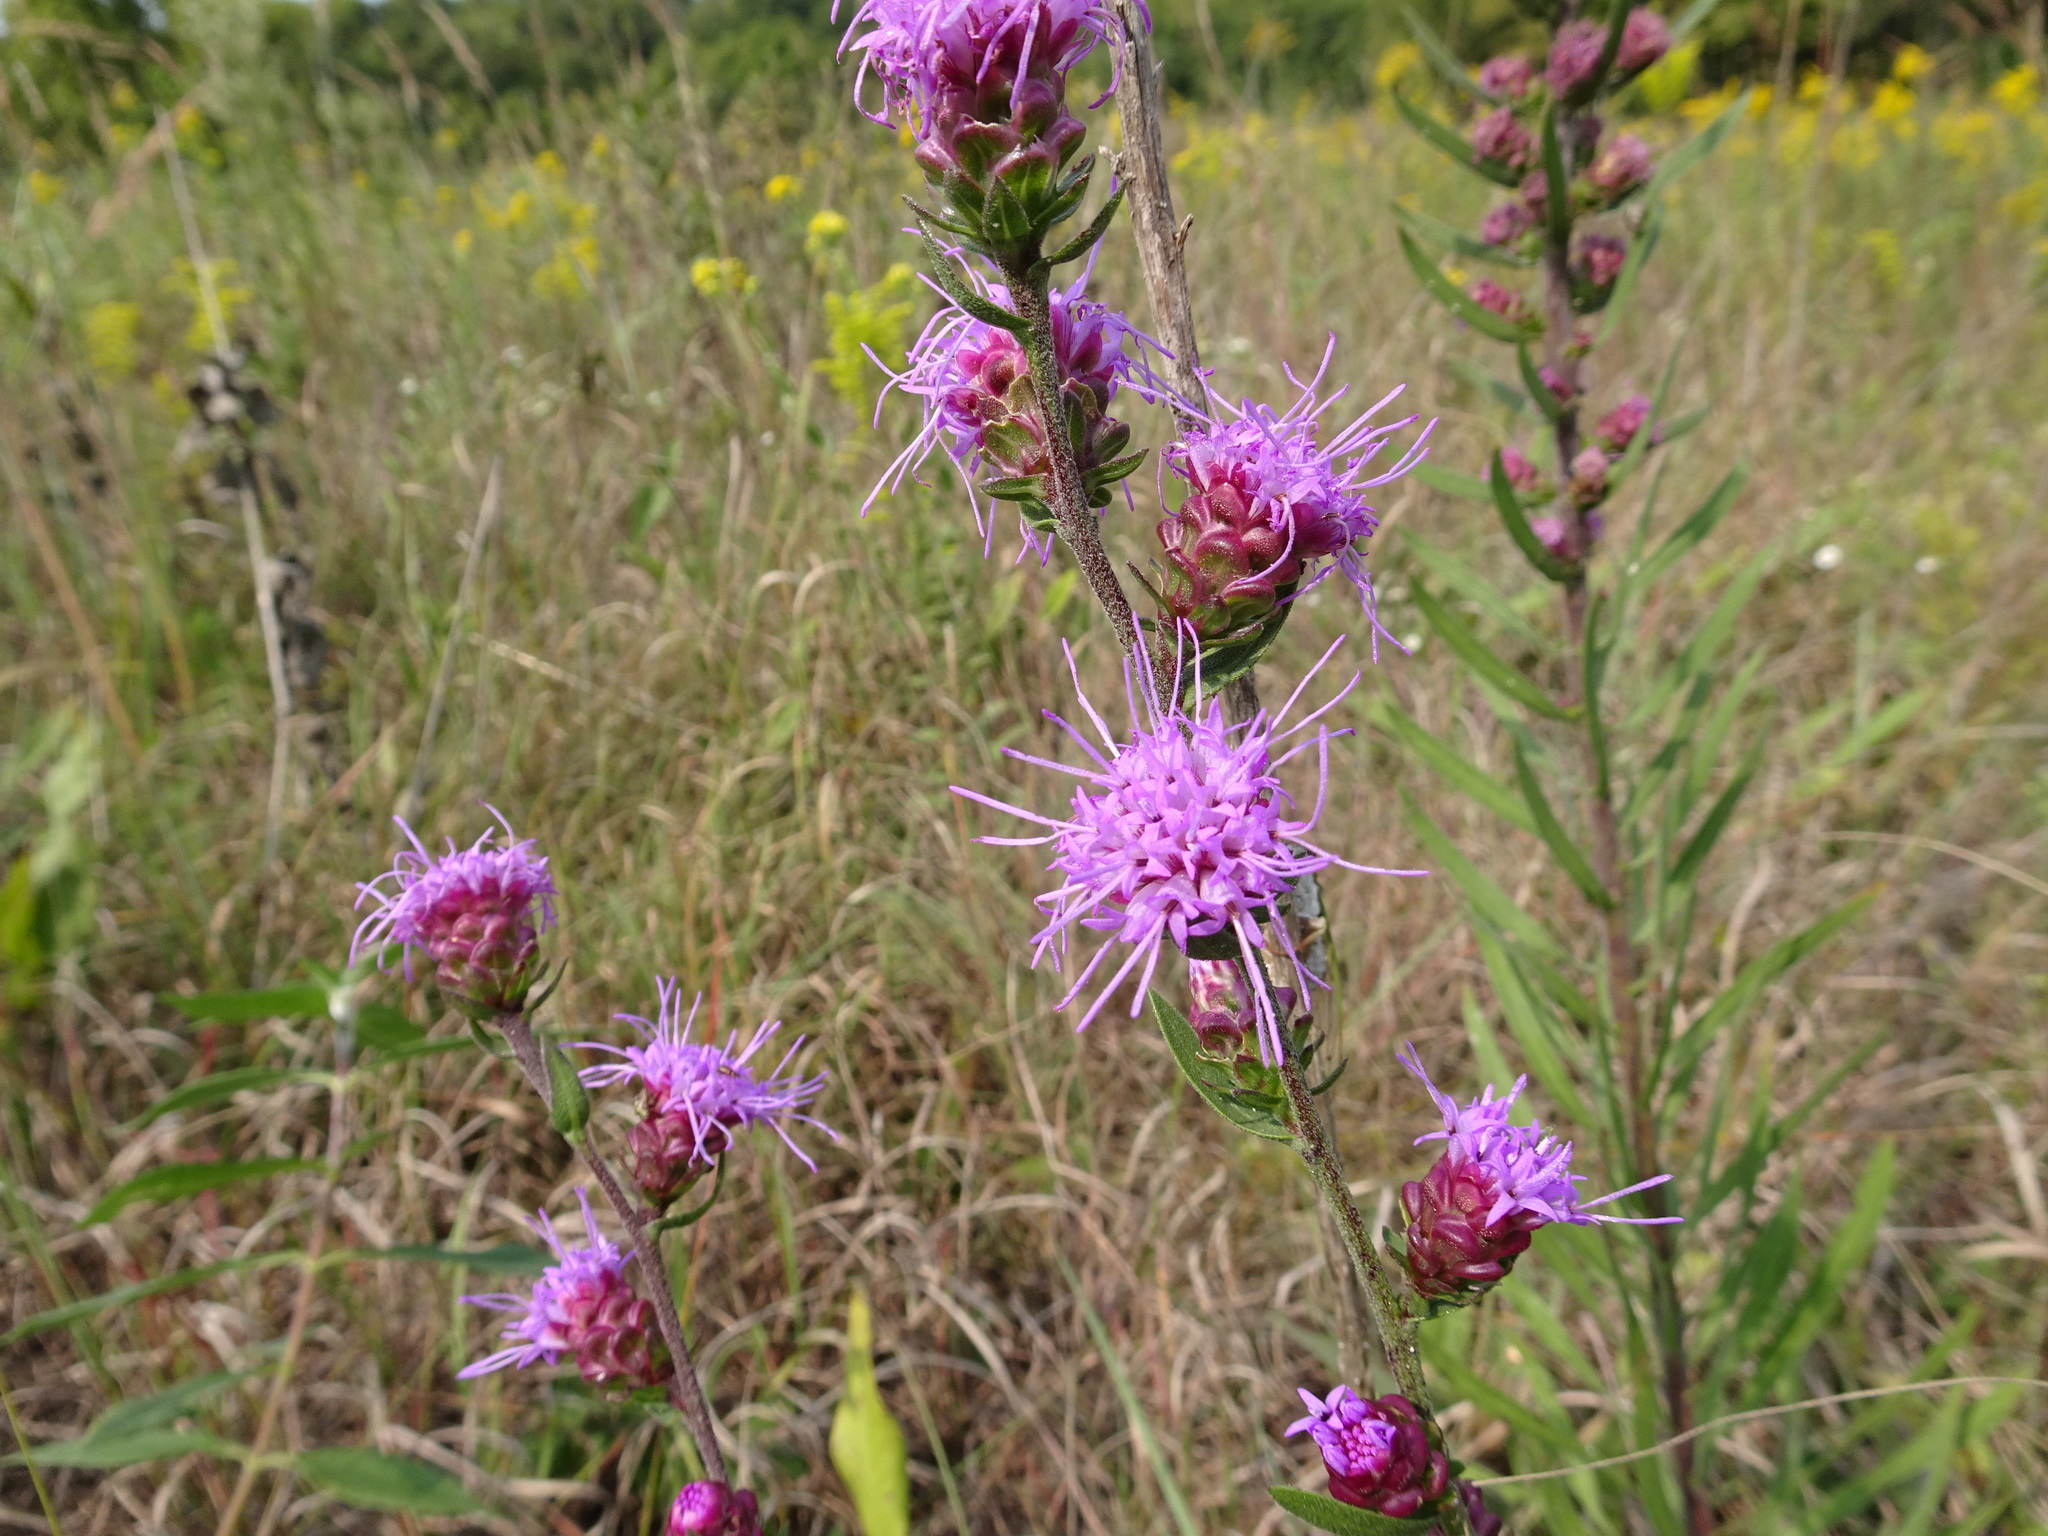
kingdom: Plantae
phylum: Tracheophyta
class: Magnoliopsida
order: Asterales
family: Asteraceae
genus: Liatris
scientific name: Liatris aspera
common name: Lacerate blazing-star
